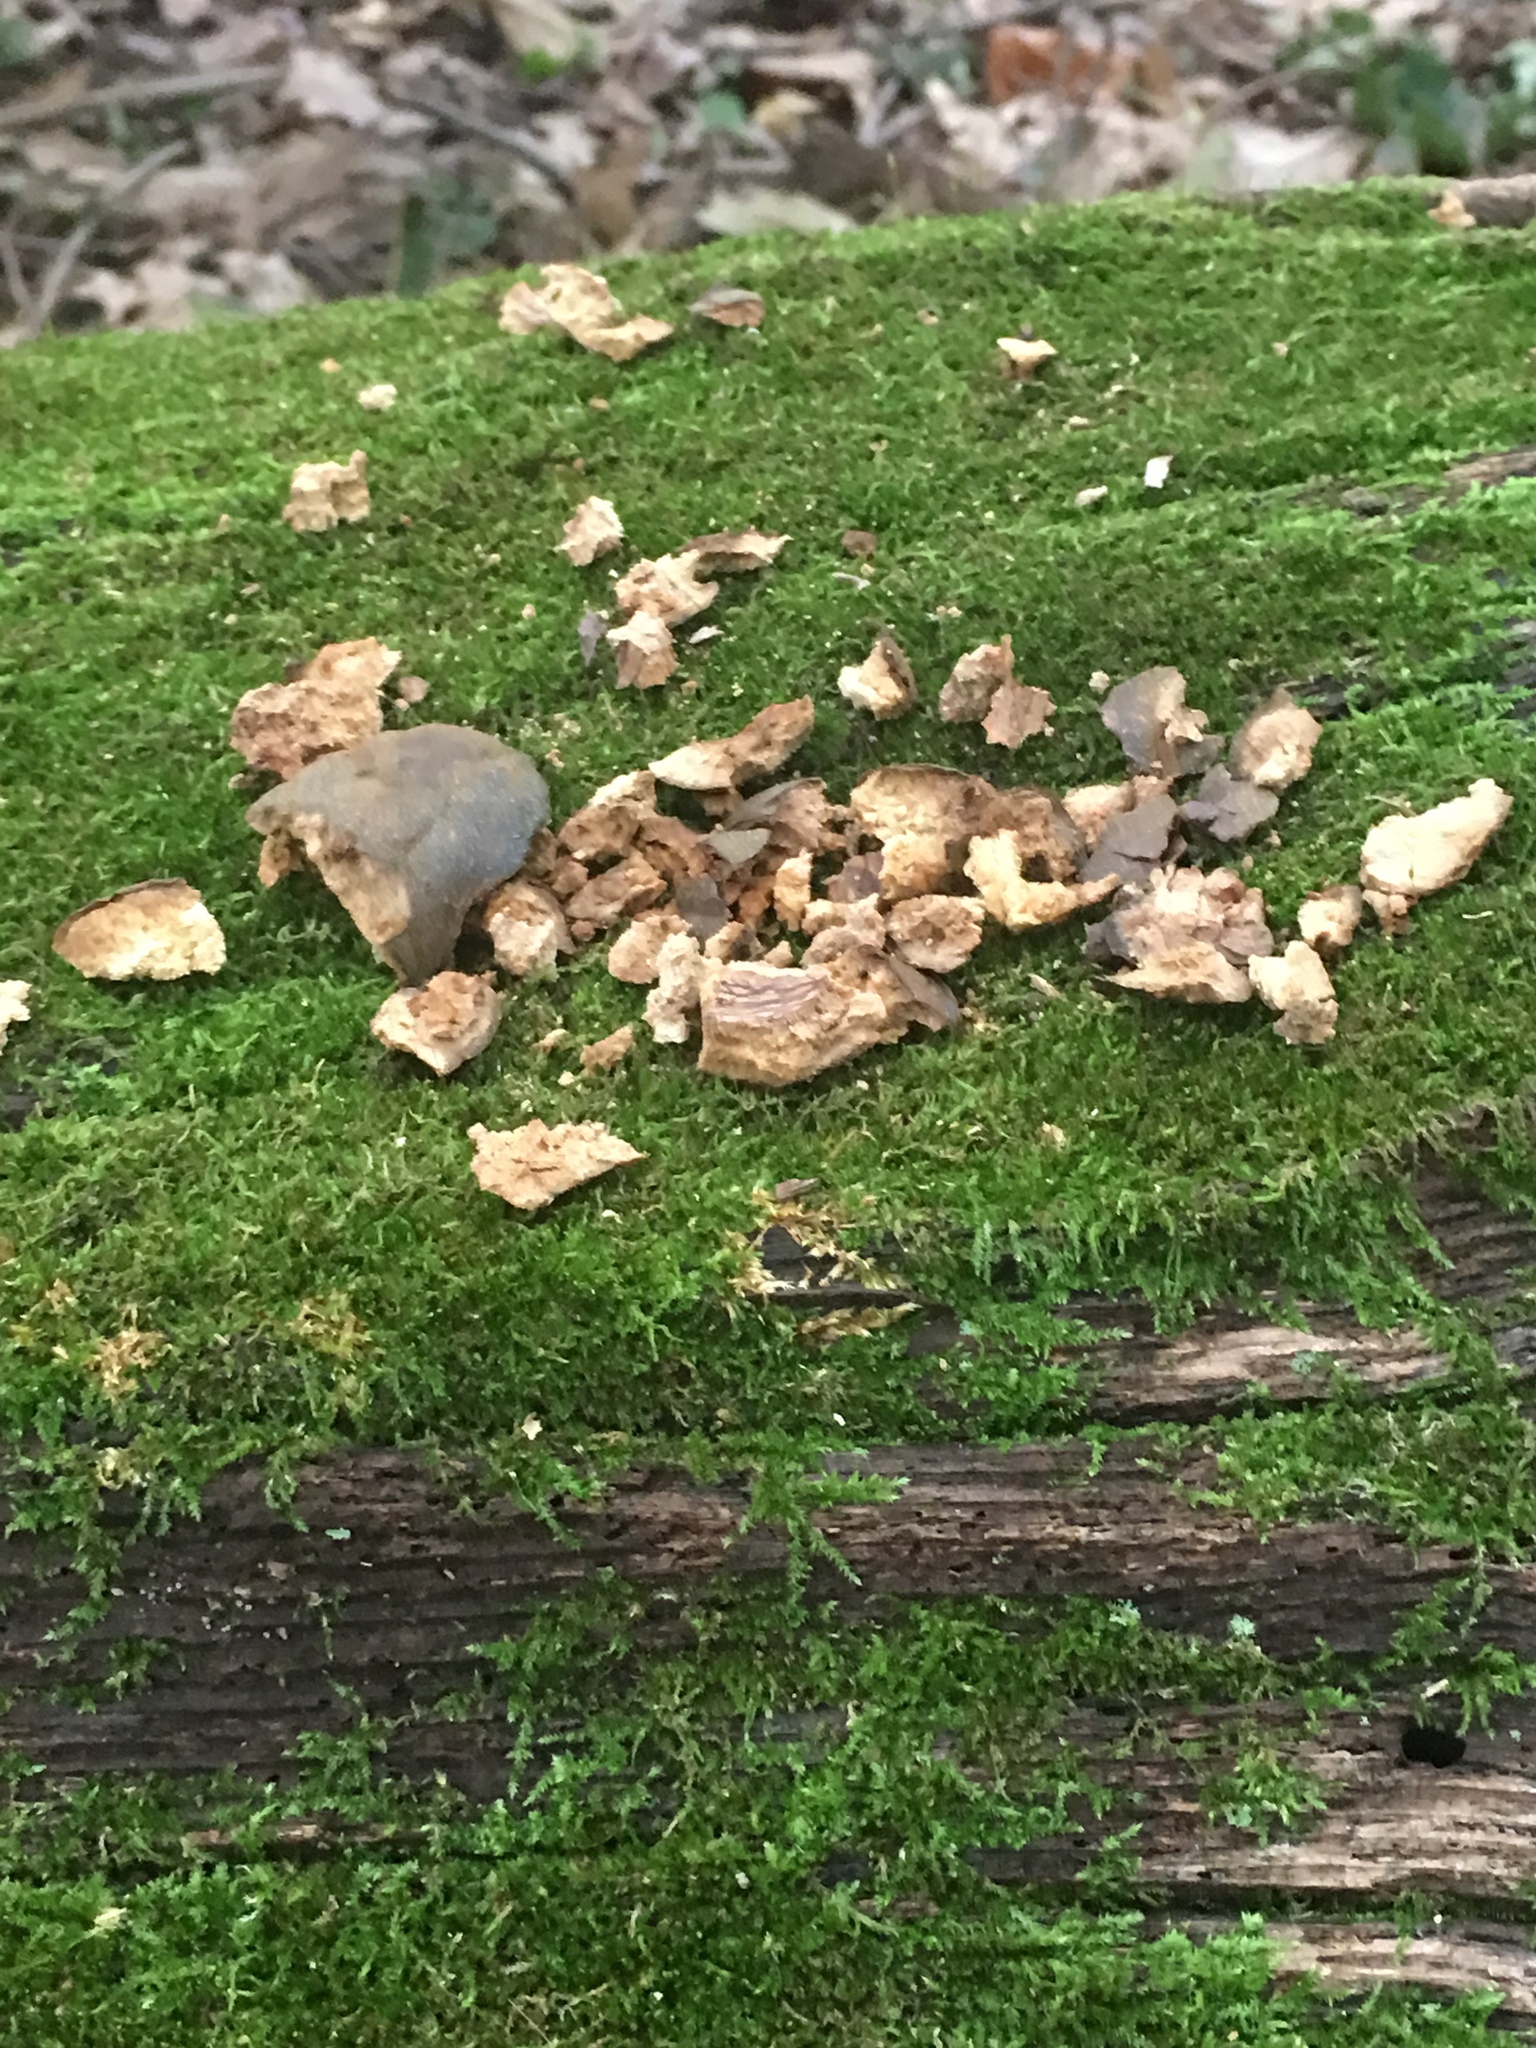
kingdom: Animalia
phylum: Chordata
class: Mammalia
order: Rodentia
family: Sciuridae
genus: Sciurus
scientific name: Sciurus carolinensis
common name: Eastern gray squirrel
